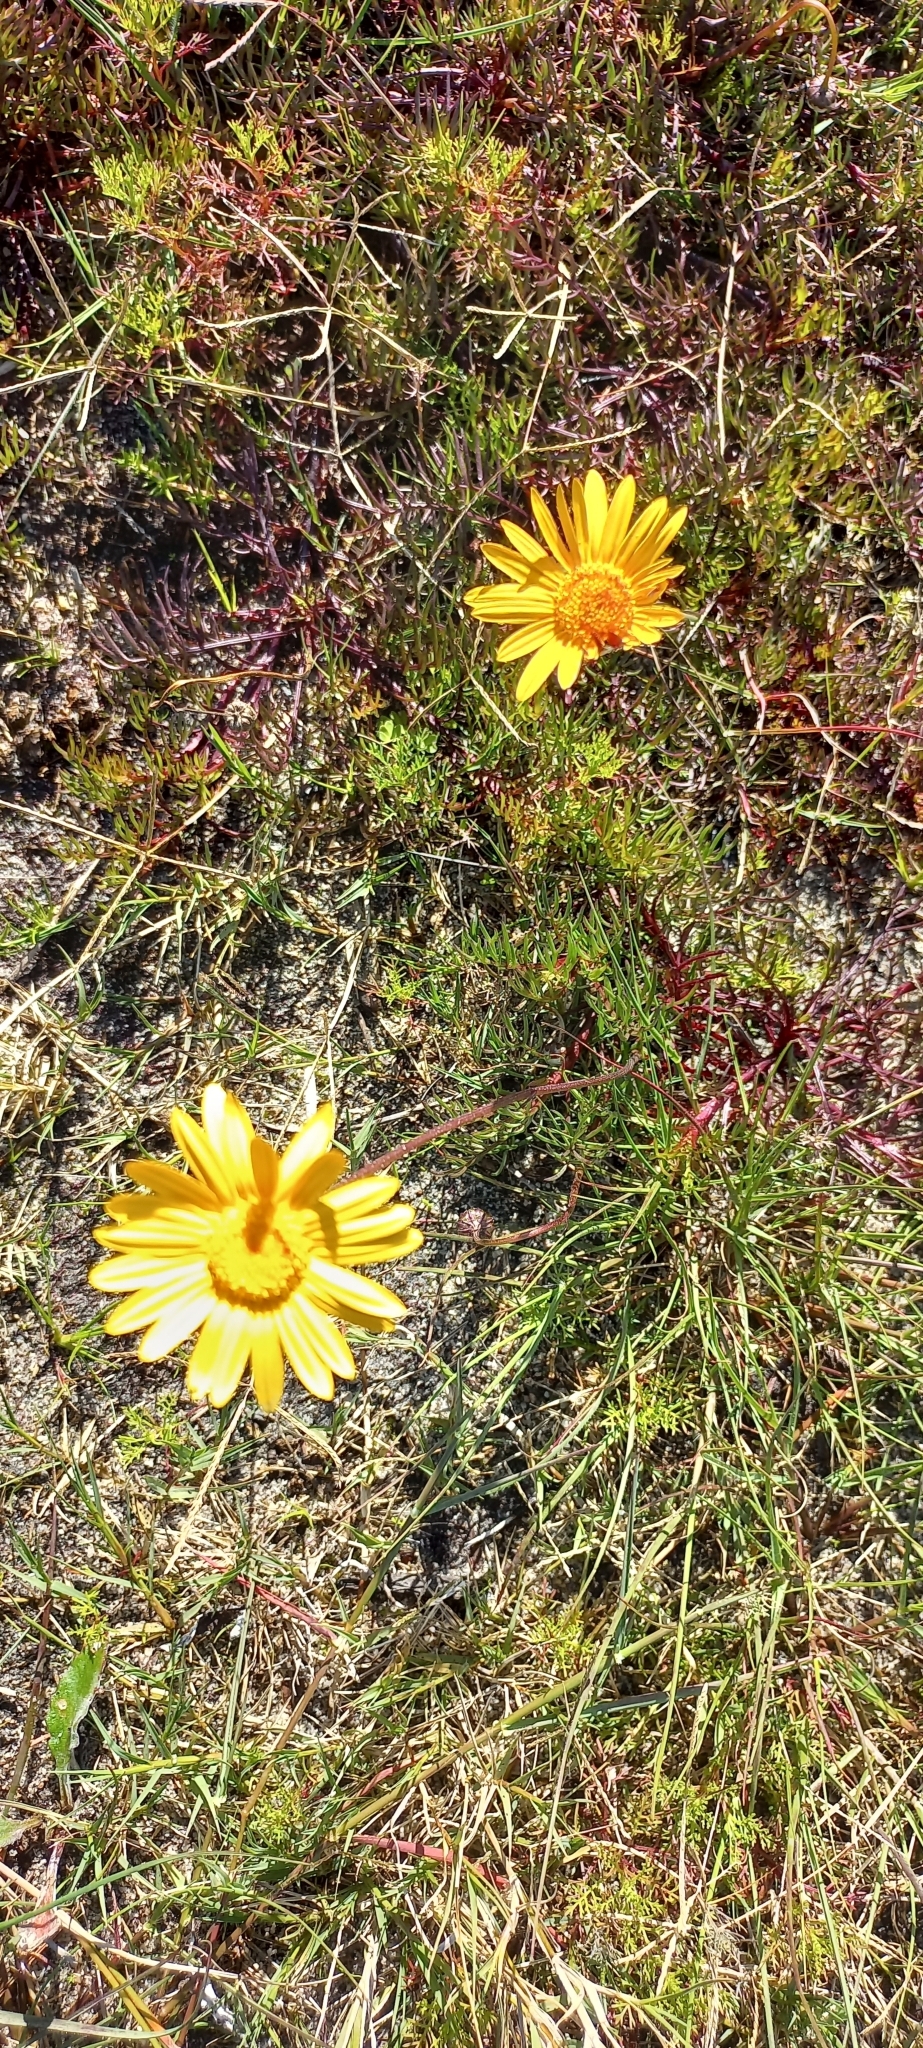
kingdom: Plantae
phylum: Tracheophyta
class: Magnoliopsida
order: Asterales
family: Asteraceae
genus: Ursinia
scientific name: Ursinia paleacea
